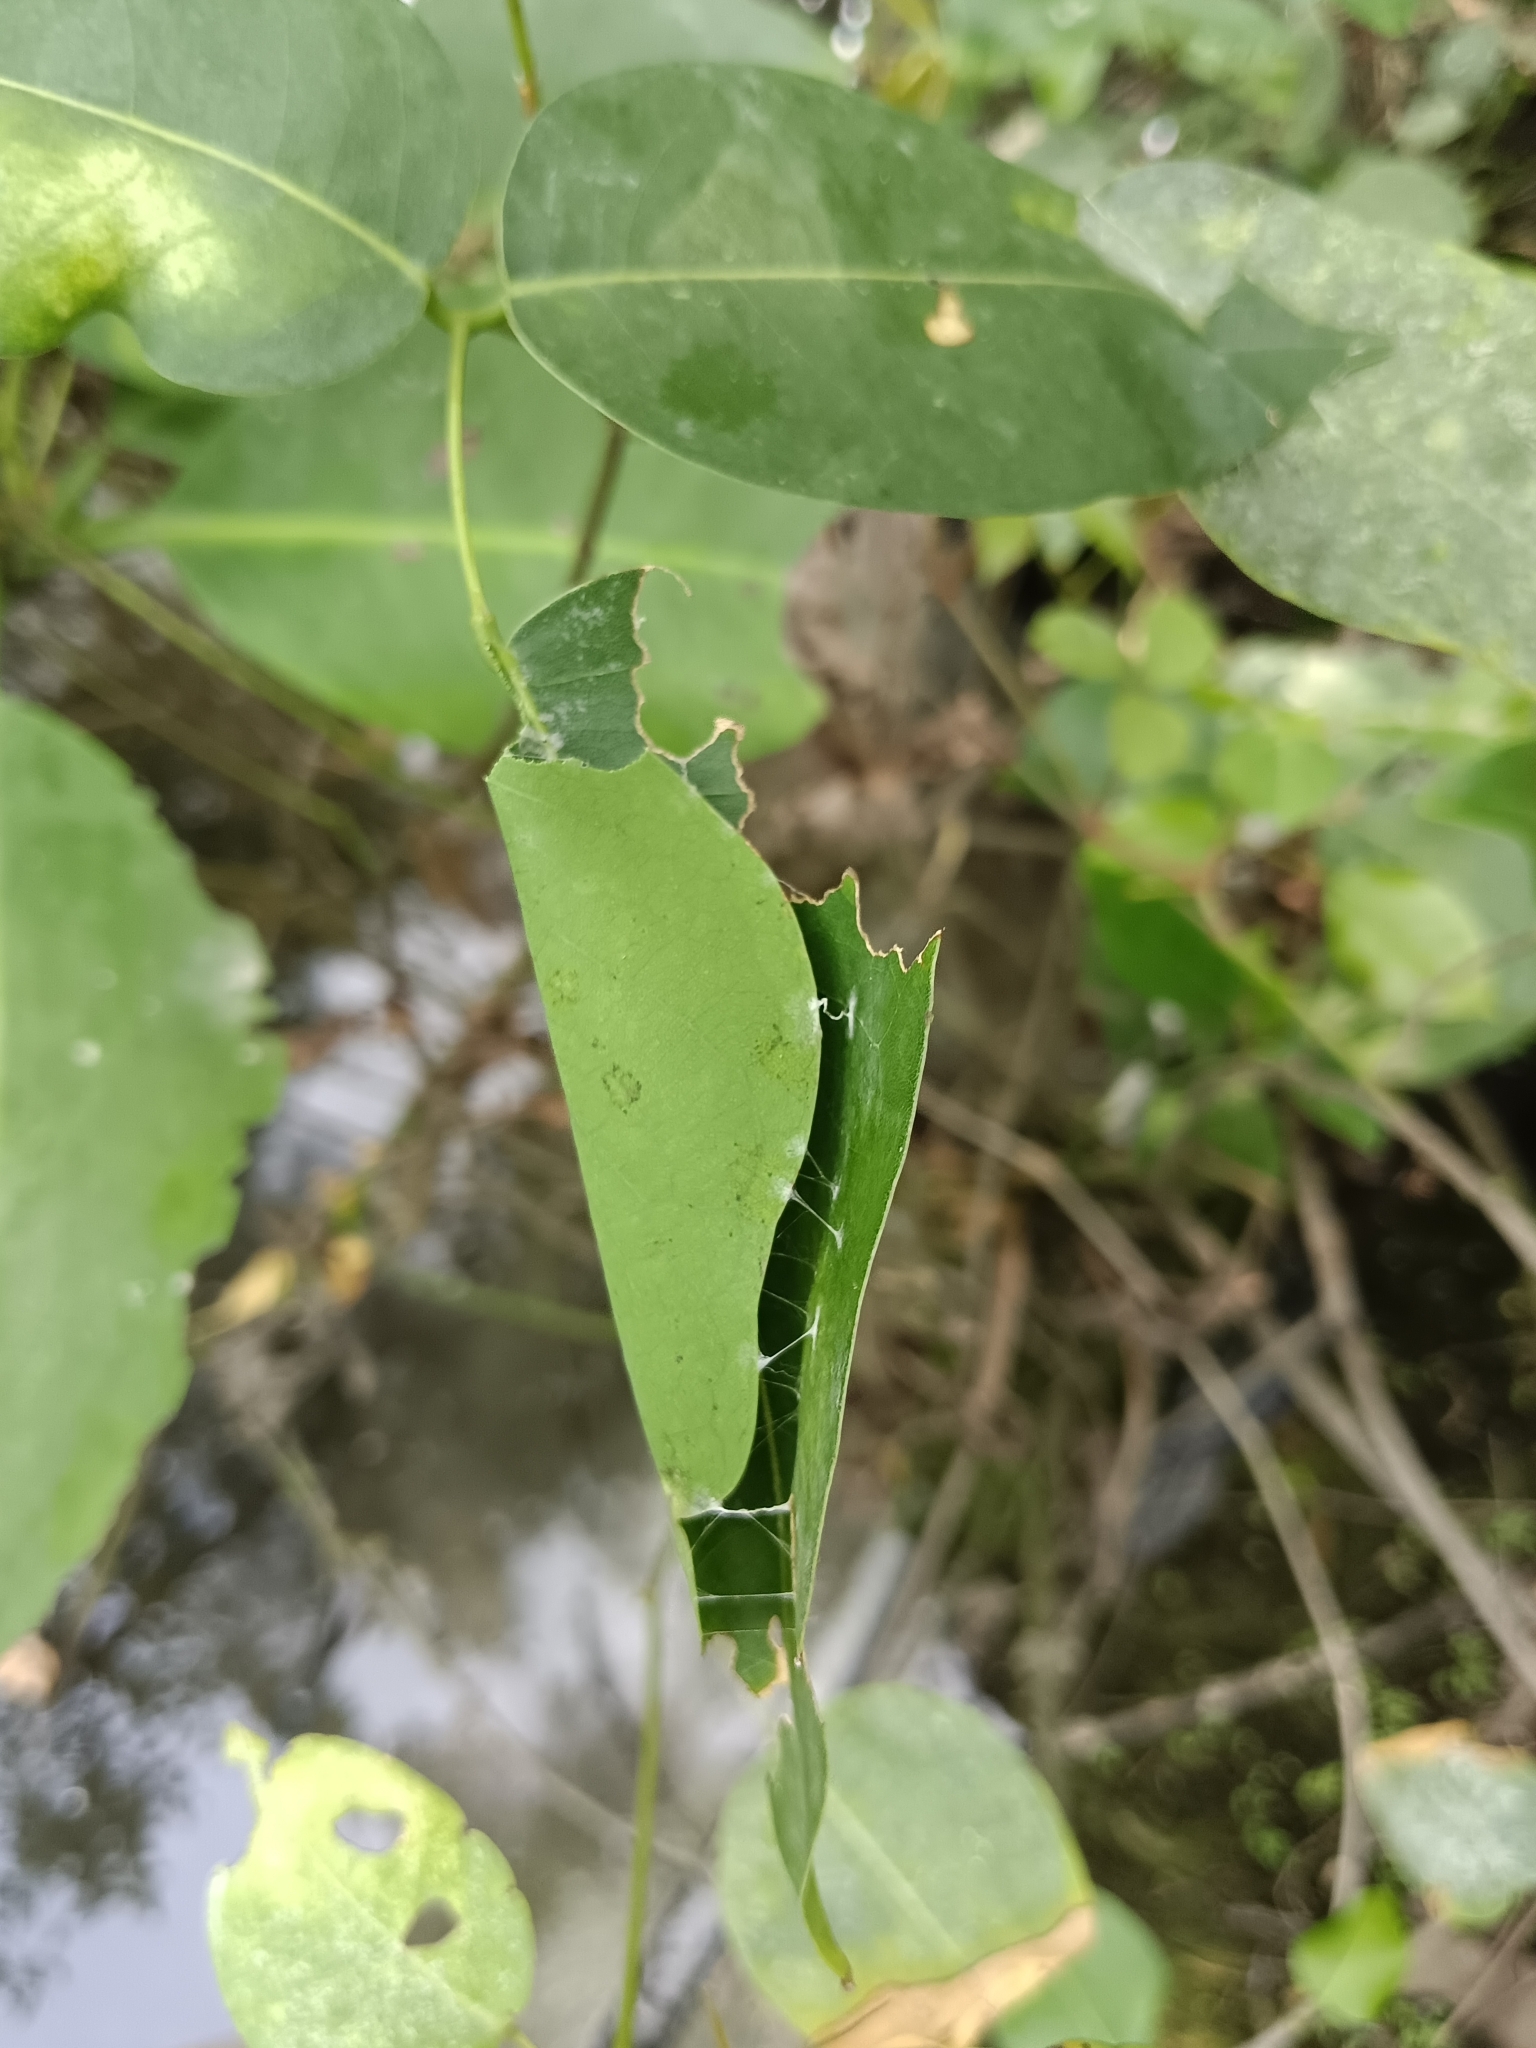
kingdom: Animalia
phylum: Arthropoda
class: Insecta
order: Lepidoptera
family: Hesperiidae
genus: Hasora
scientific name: Hasora badra
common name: Common awl
